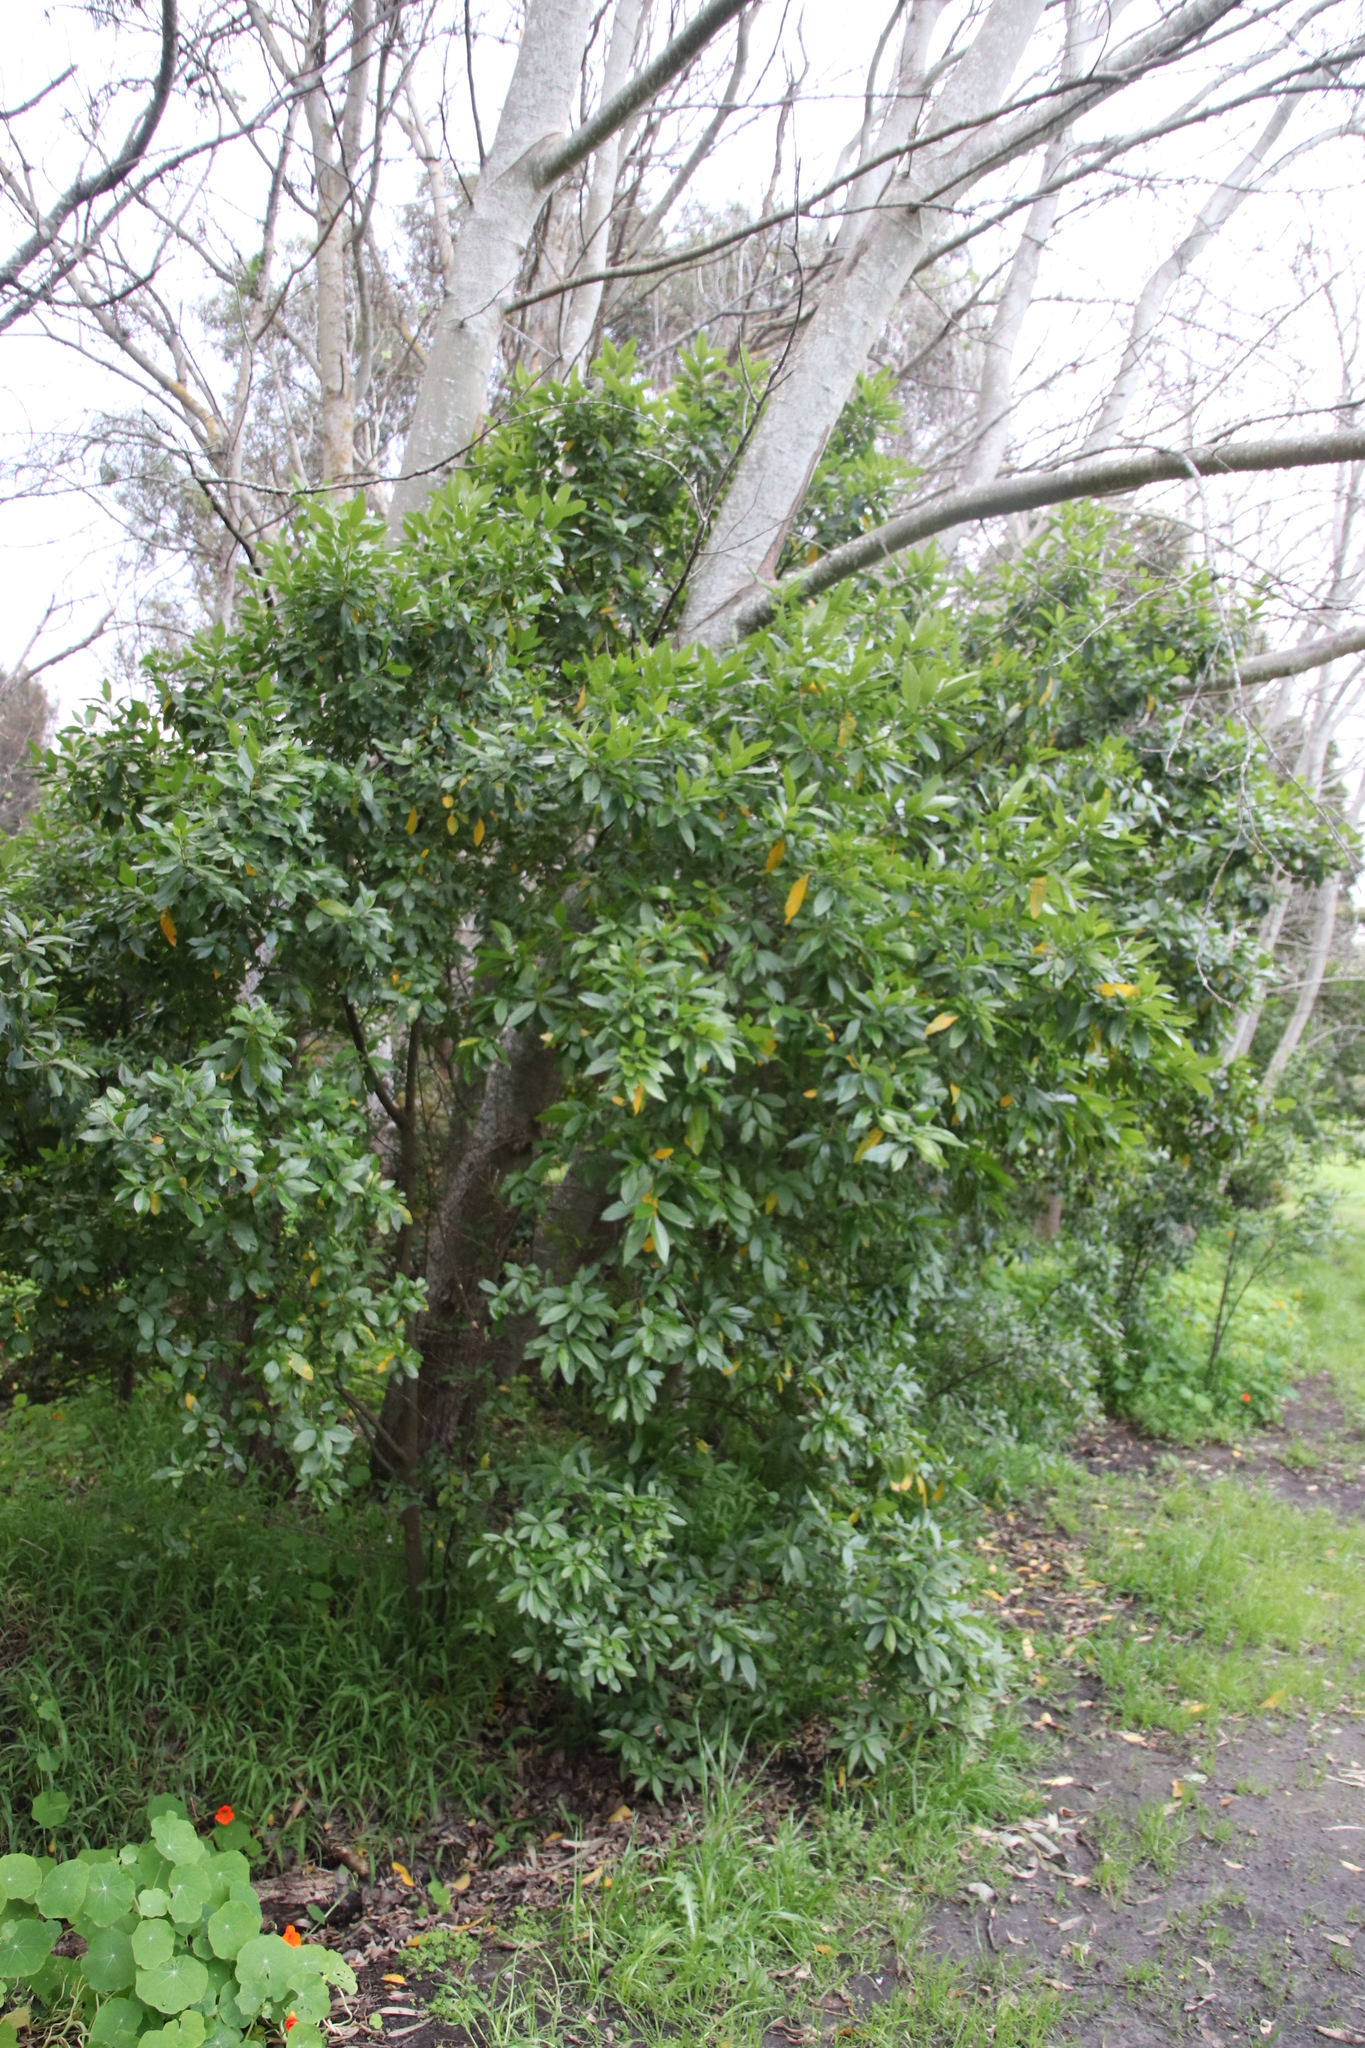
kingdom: Plantae
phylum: Tracheophyta
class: Magnoliopsida
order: Malpighiales
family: Achariaceae
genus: Kiggelaria
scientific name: Kiggelaria africana
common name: Wild peach
